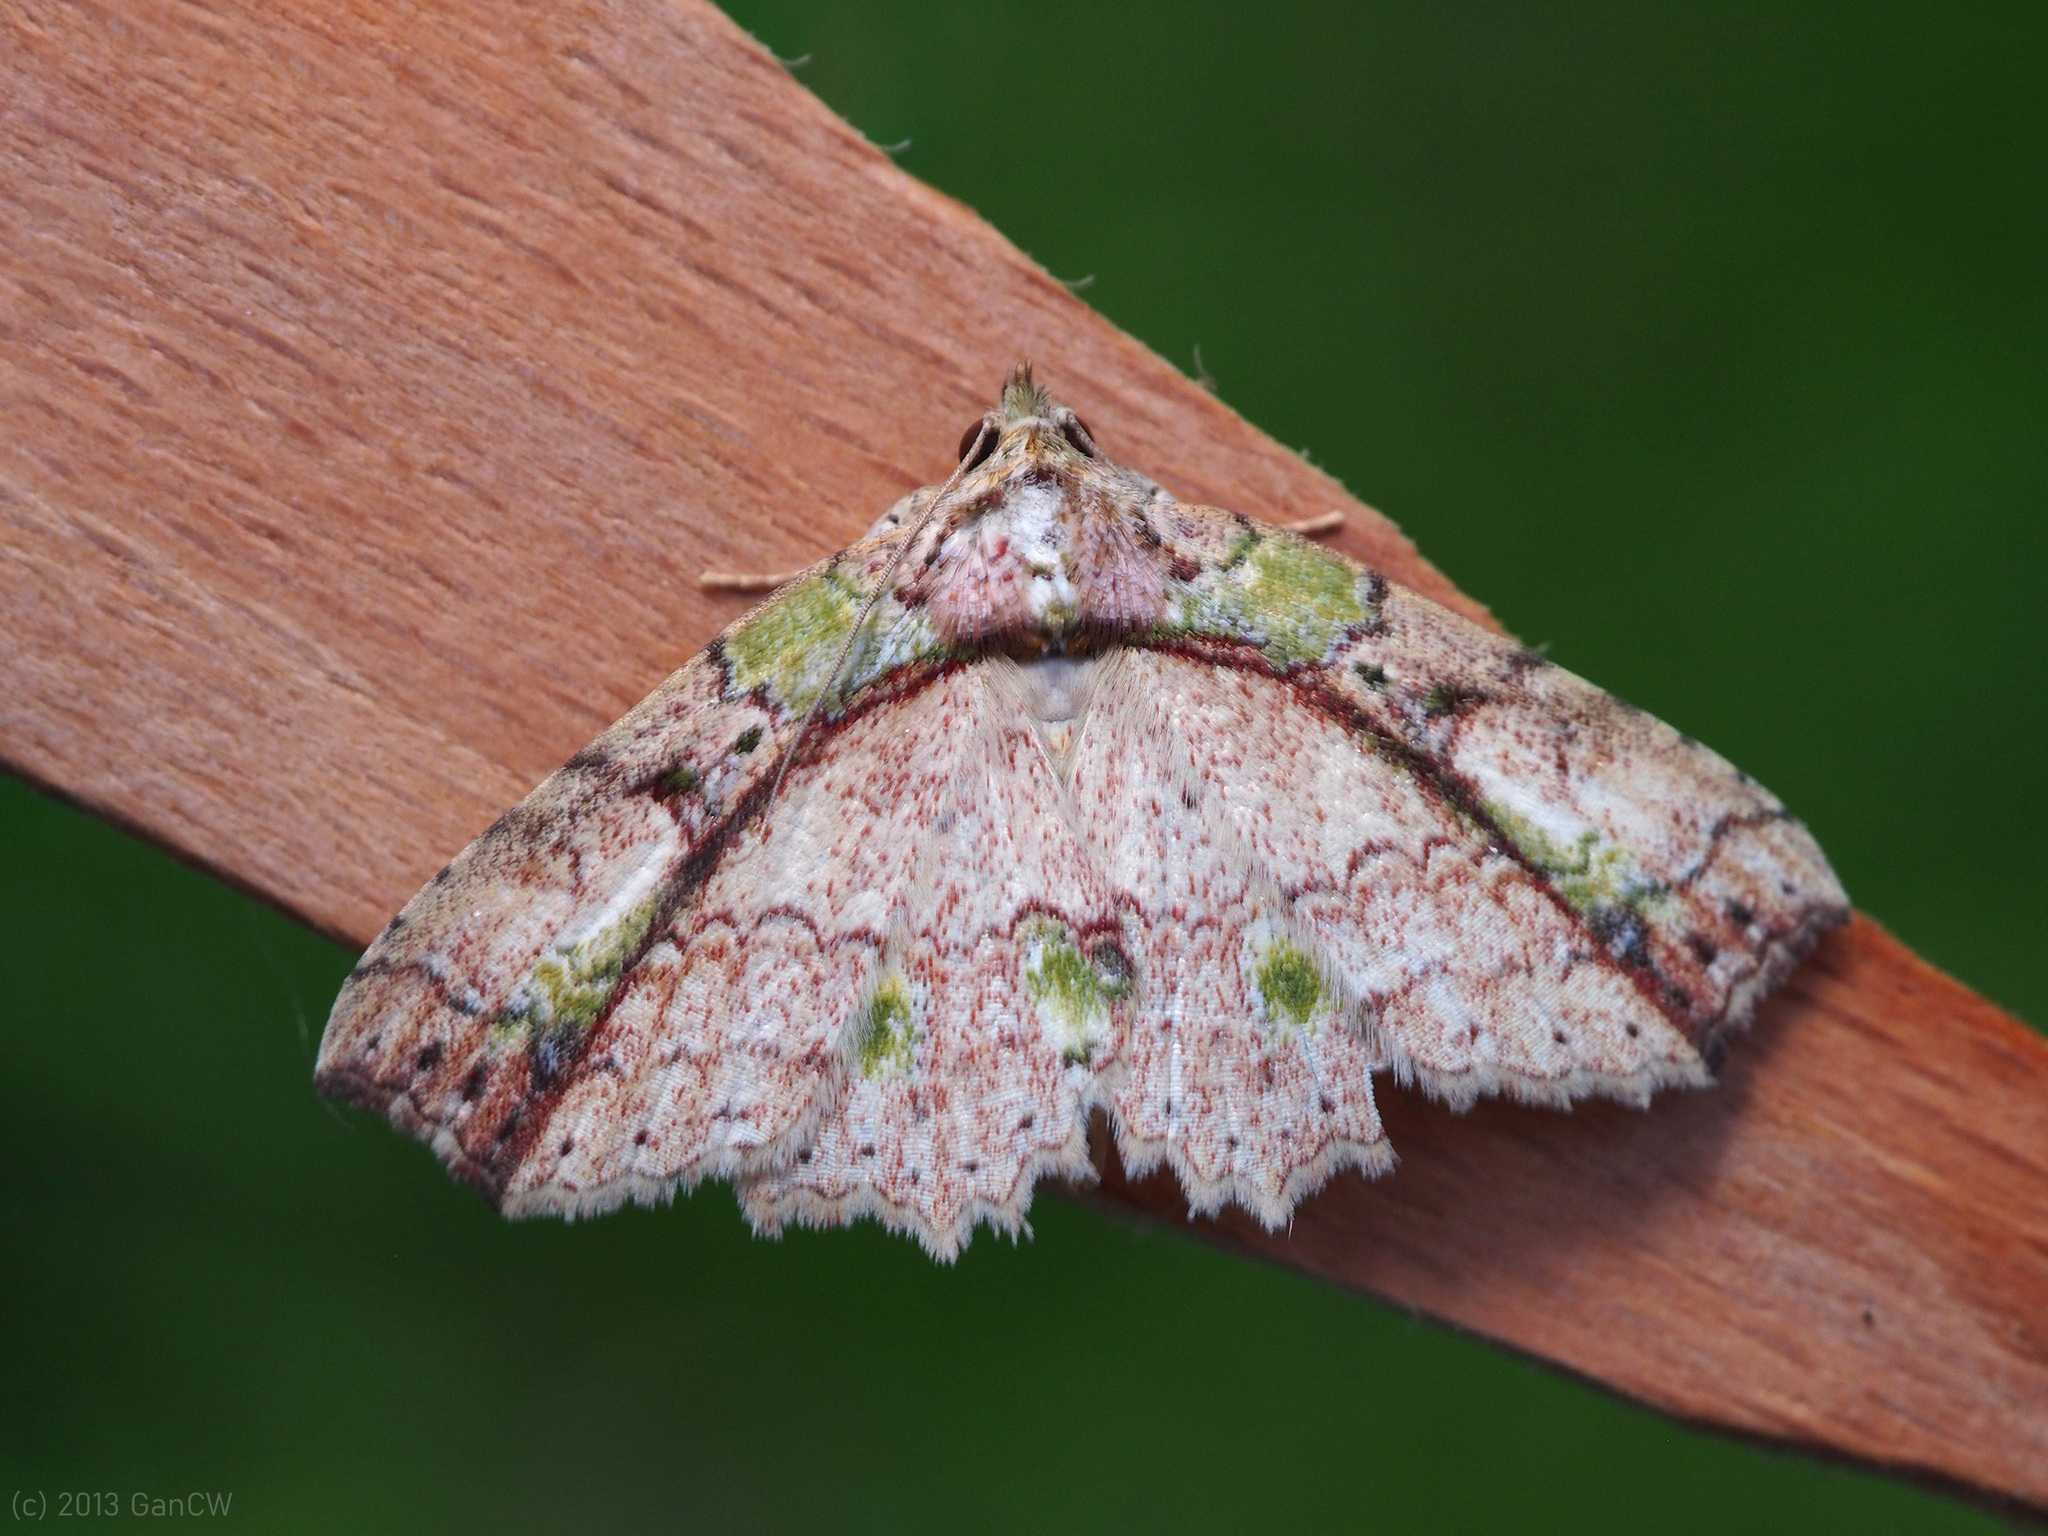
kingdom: Animalia
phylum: Arthropoda
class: Insecta
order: Lepidoptera
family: Erebidae
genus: Tamba
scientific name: Tamba mnionomera
